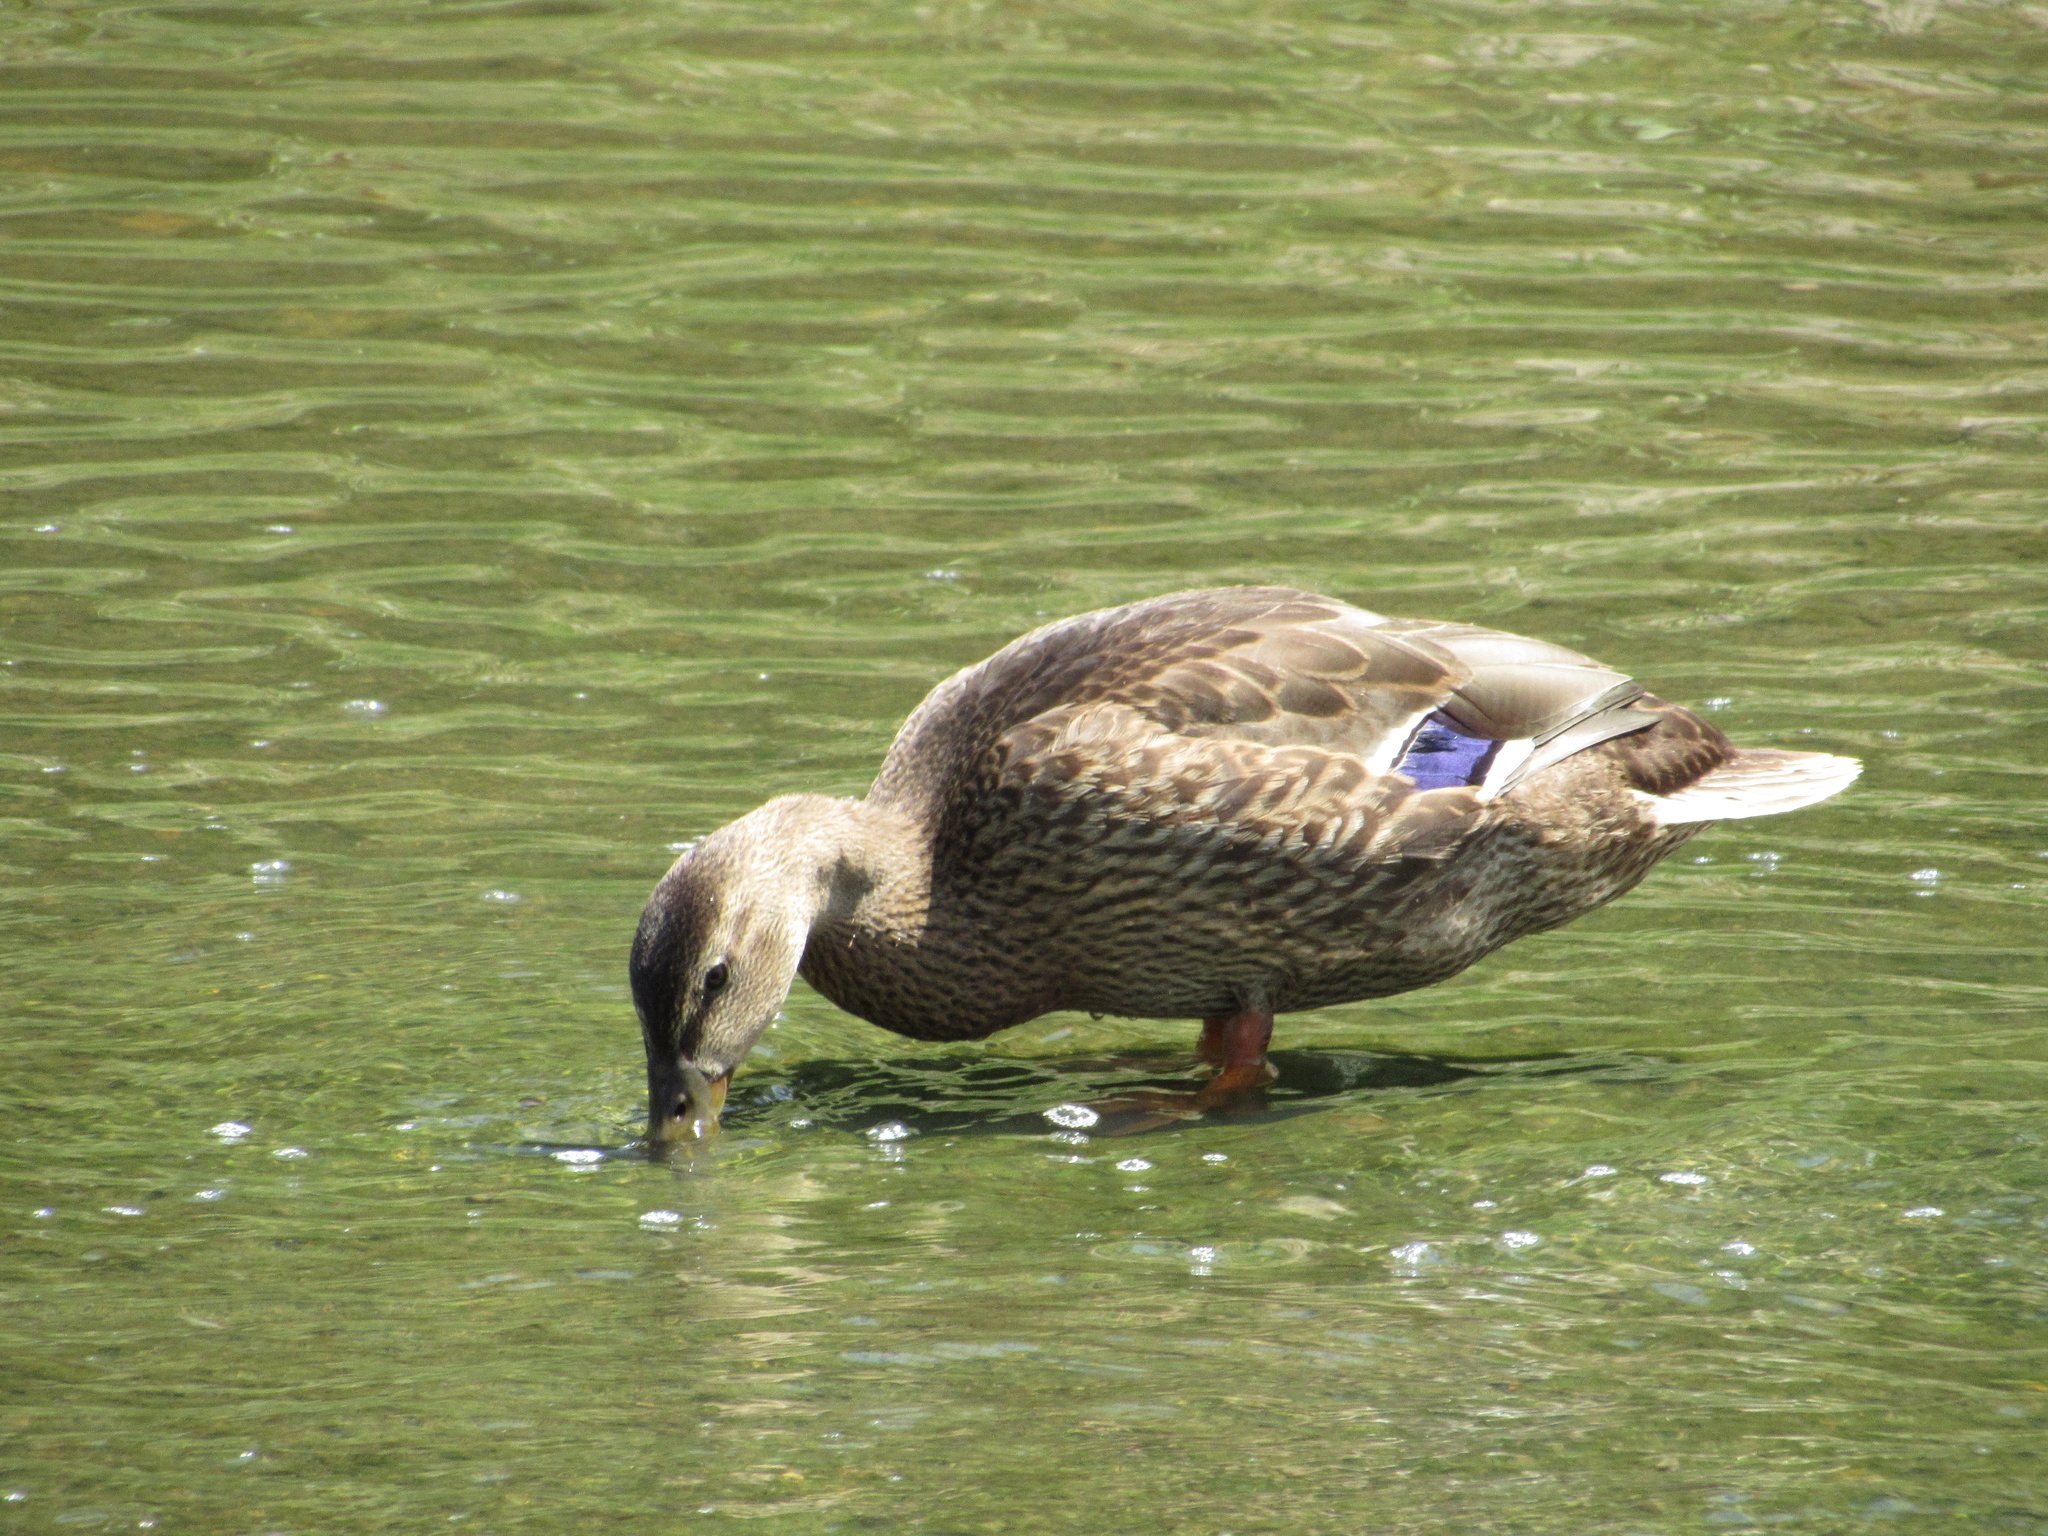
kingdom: Animalia
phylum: Chordata
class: Aves
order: Anseriformes
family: Anatidae
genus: Anas
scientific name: Anas platyrhynchos
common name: Mallard
